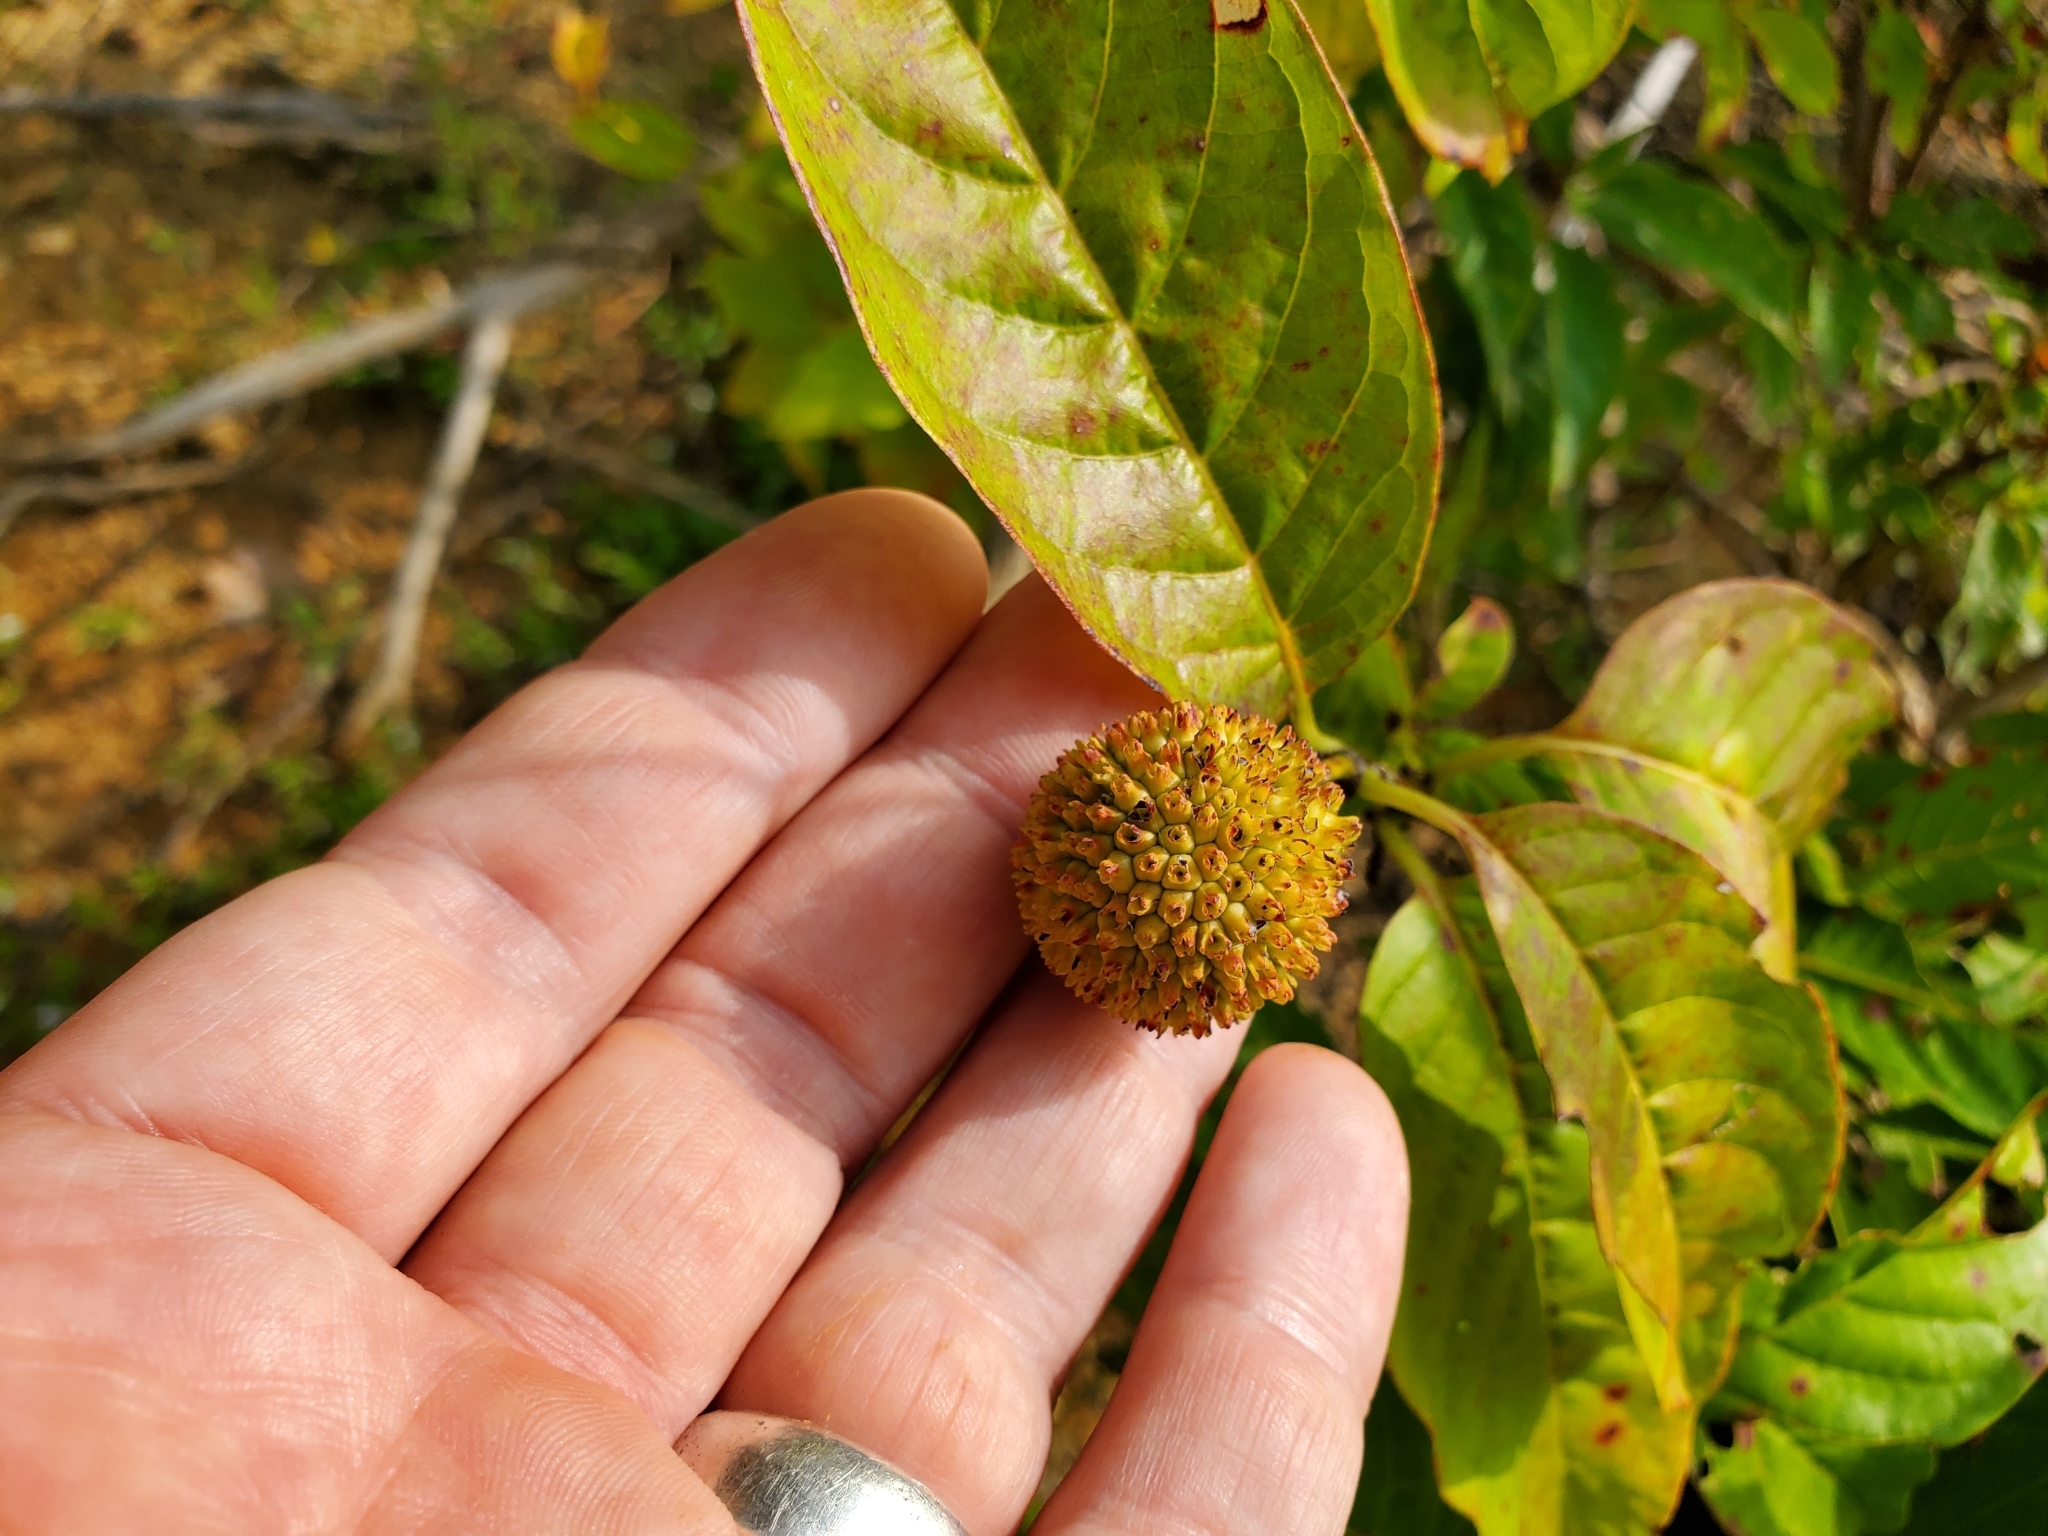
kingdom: Plantae
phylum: Tracheophyta
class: Magnoliopsida
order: Gentianales
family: Rubiaceae
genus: Cephalanthus
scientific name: Cephalanthus occidentalis
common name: Button-willow
